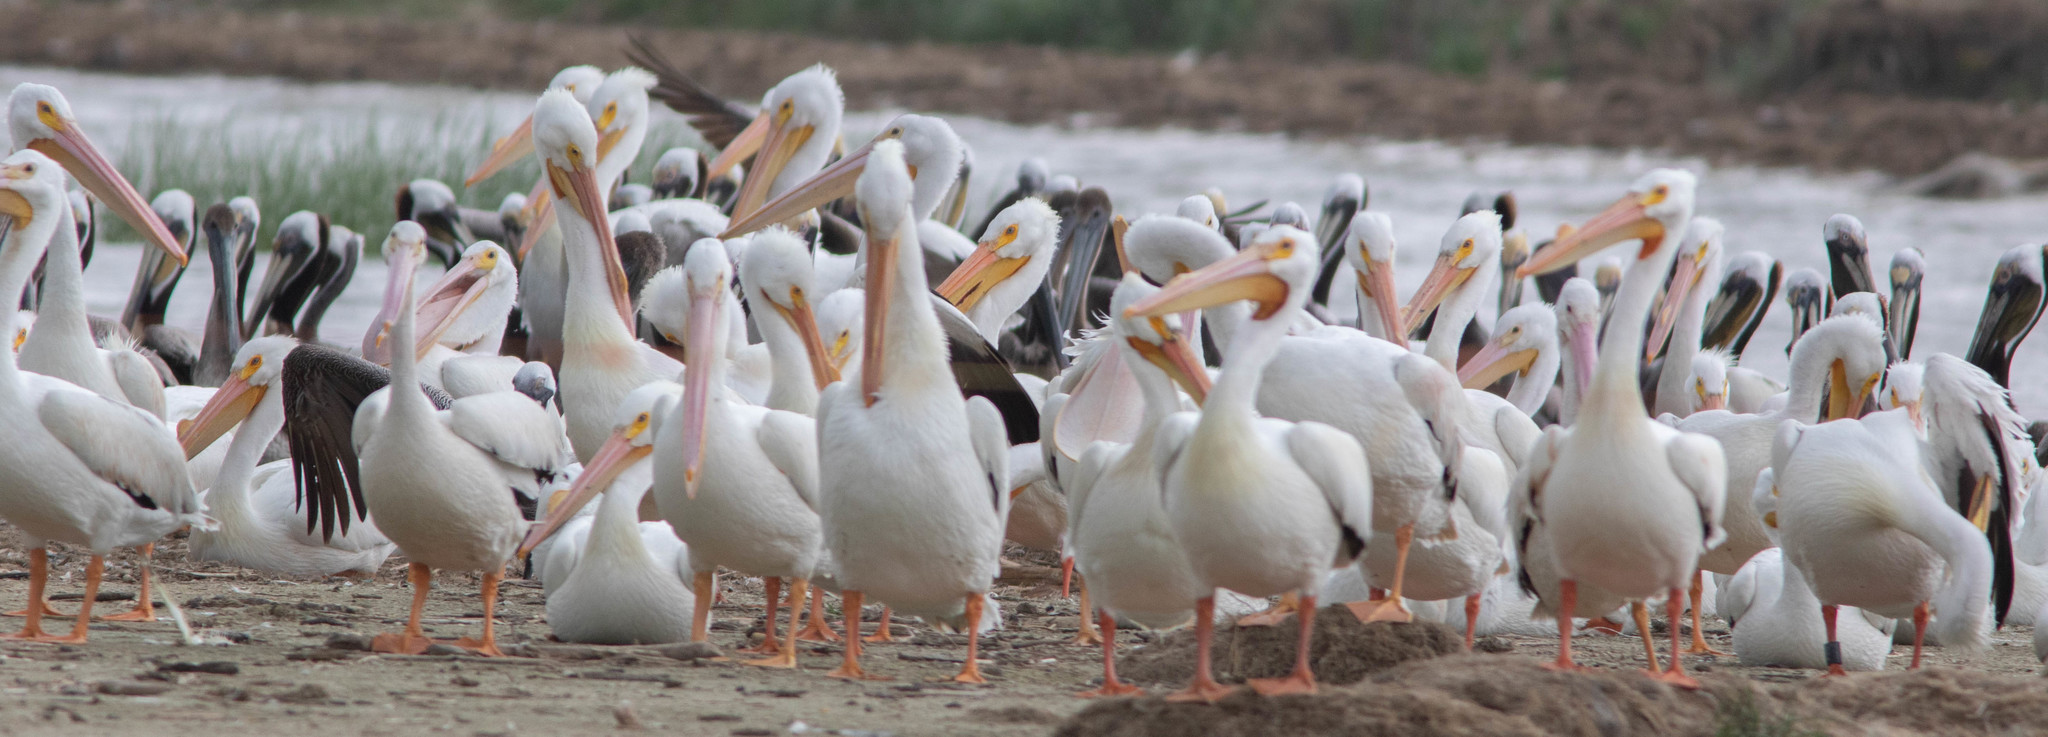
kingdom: Animalia
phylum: Chordata
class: Aves
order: Pelecaniformes
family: Pelecanidae
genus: Pelecanus
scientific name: Pelecanus erythrorhynchos
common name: American white pelican
